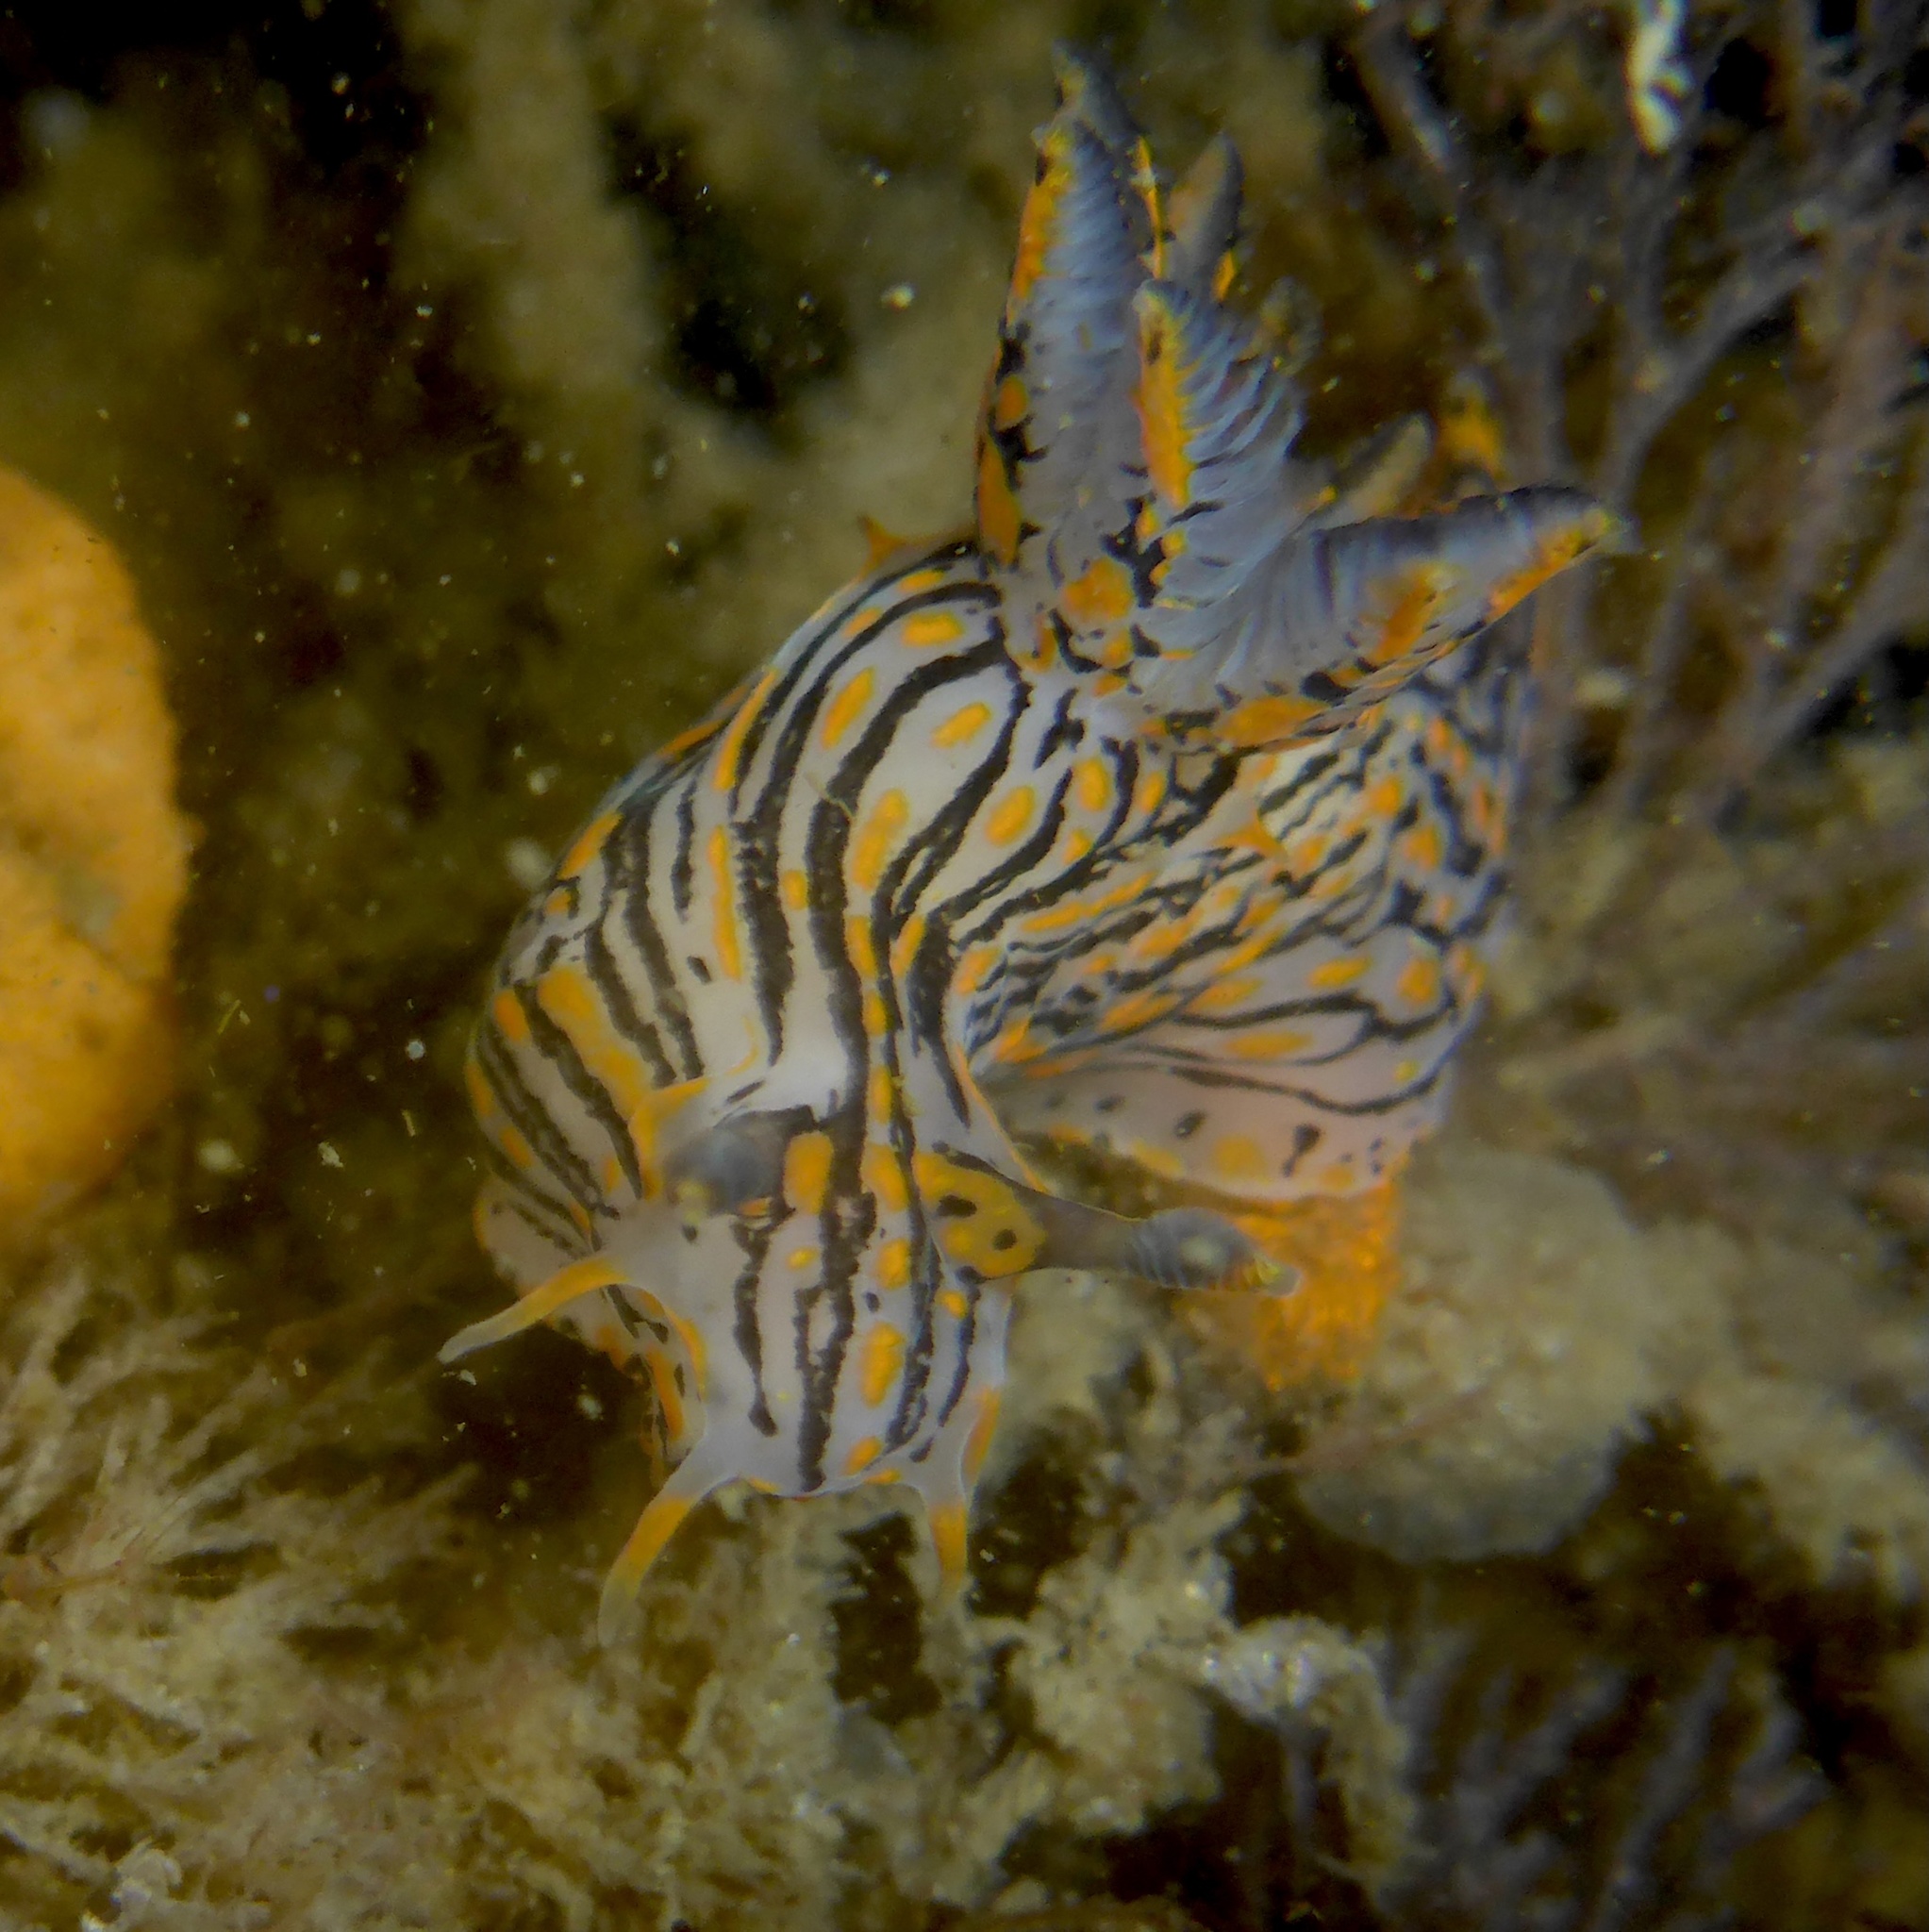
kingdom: Animalia
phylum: Mollusca
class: Gastropoda
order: Nudibranchia
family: Polyceridae
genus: Polycera
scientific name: Polycera atra
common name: Orange-spike polycera
